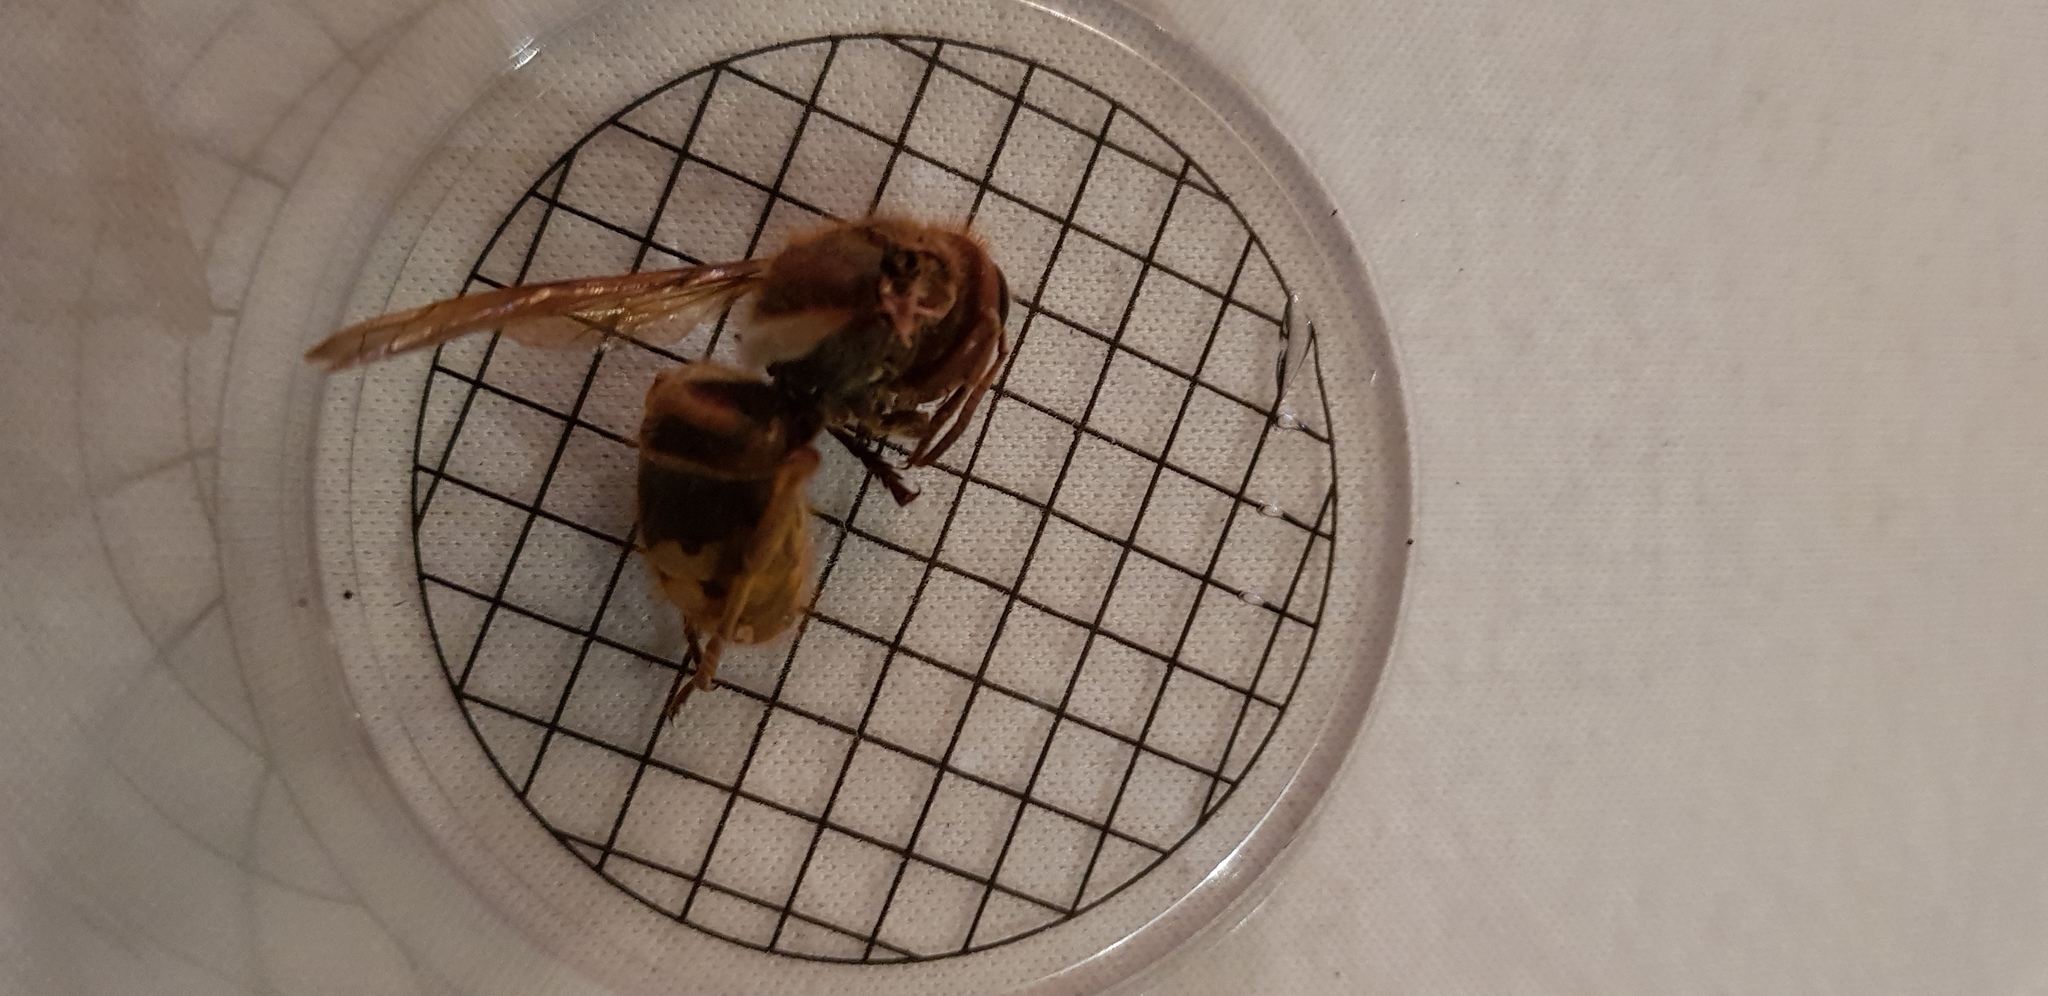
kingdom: Animalia
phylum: Arthropoda
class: Insecta
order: Hymenoptera
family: Vespidae
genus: Vespa
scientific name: Vespa crabro
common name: Hornet
